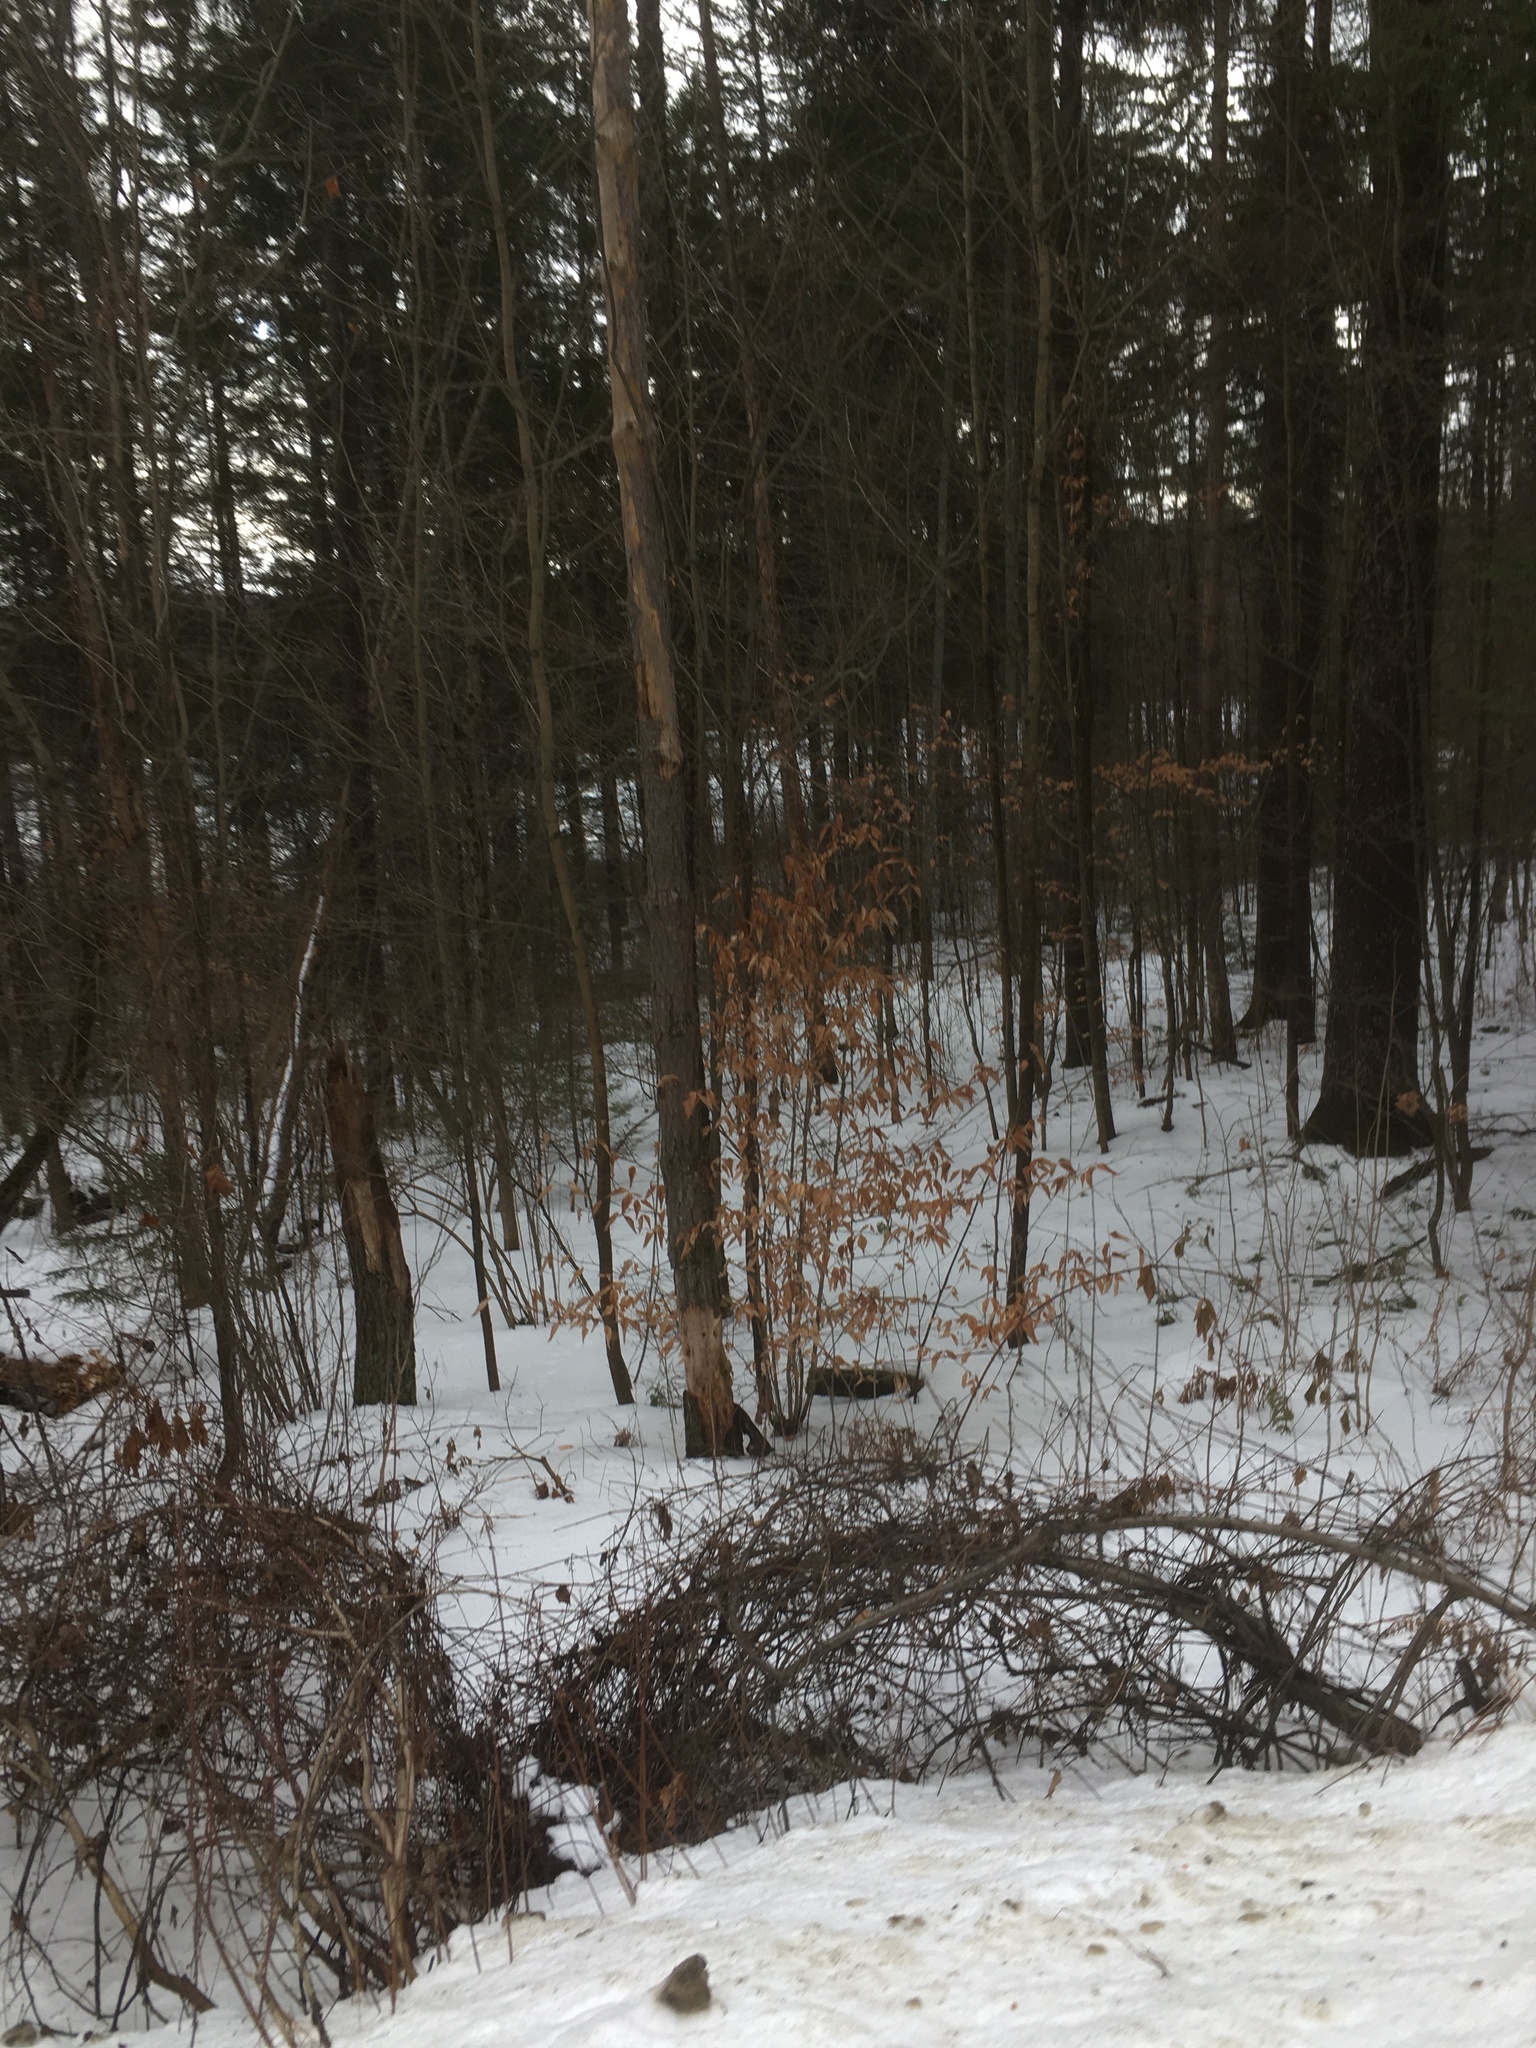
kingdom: Plantae
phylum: Tracheophyta
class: Magnoliopsida
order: Fagales
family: Fagaceae
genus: Fagus
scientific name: Fagus grandifolia
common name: American beech
